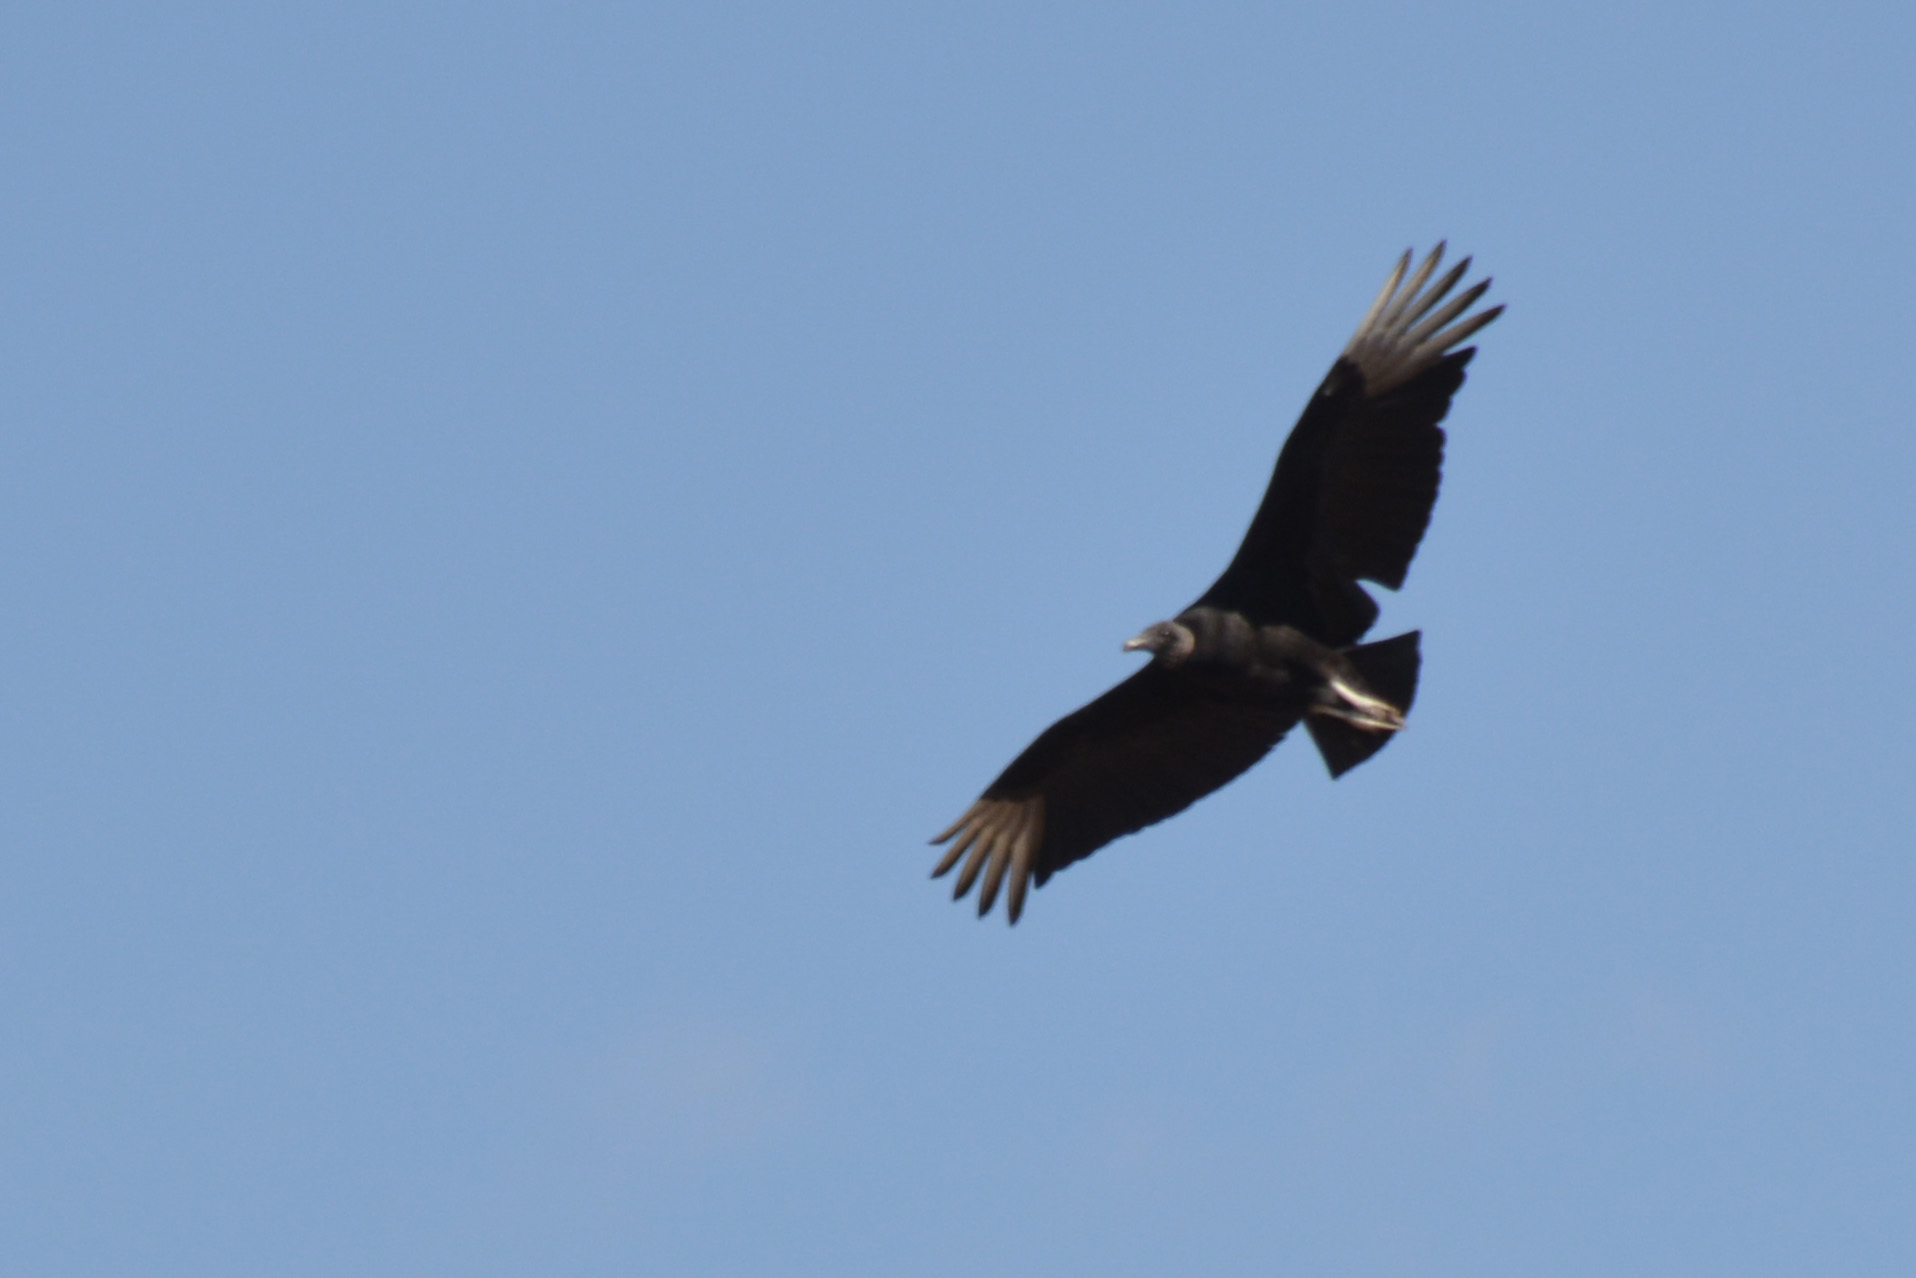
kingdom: Animalia
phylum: Chordata
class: Aves
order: Accipitriformes
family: Cathartidae
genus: Coragyps
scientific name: Coragyps atratus
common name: Black vulture
